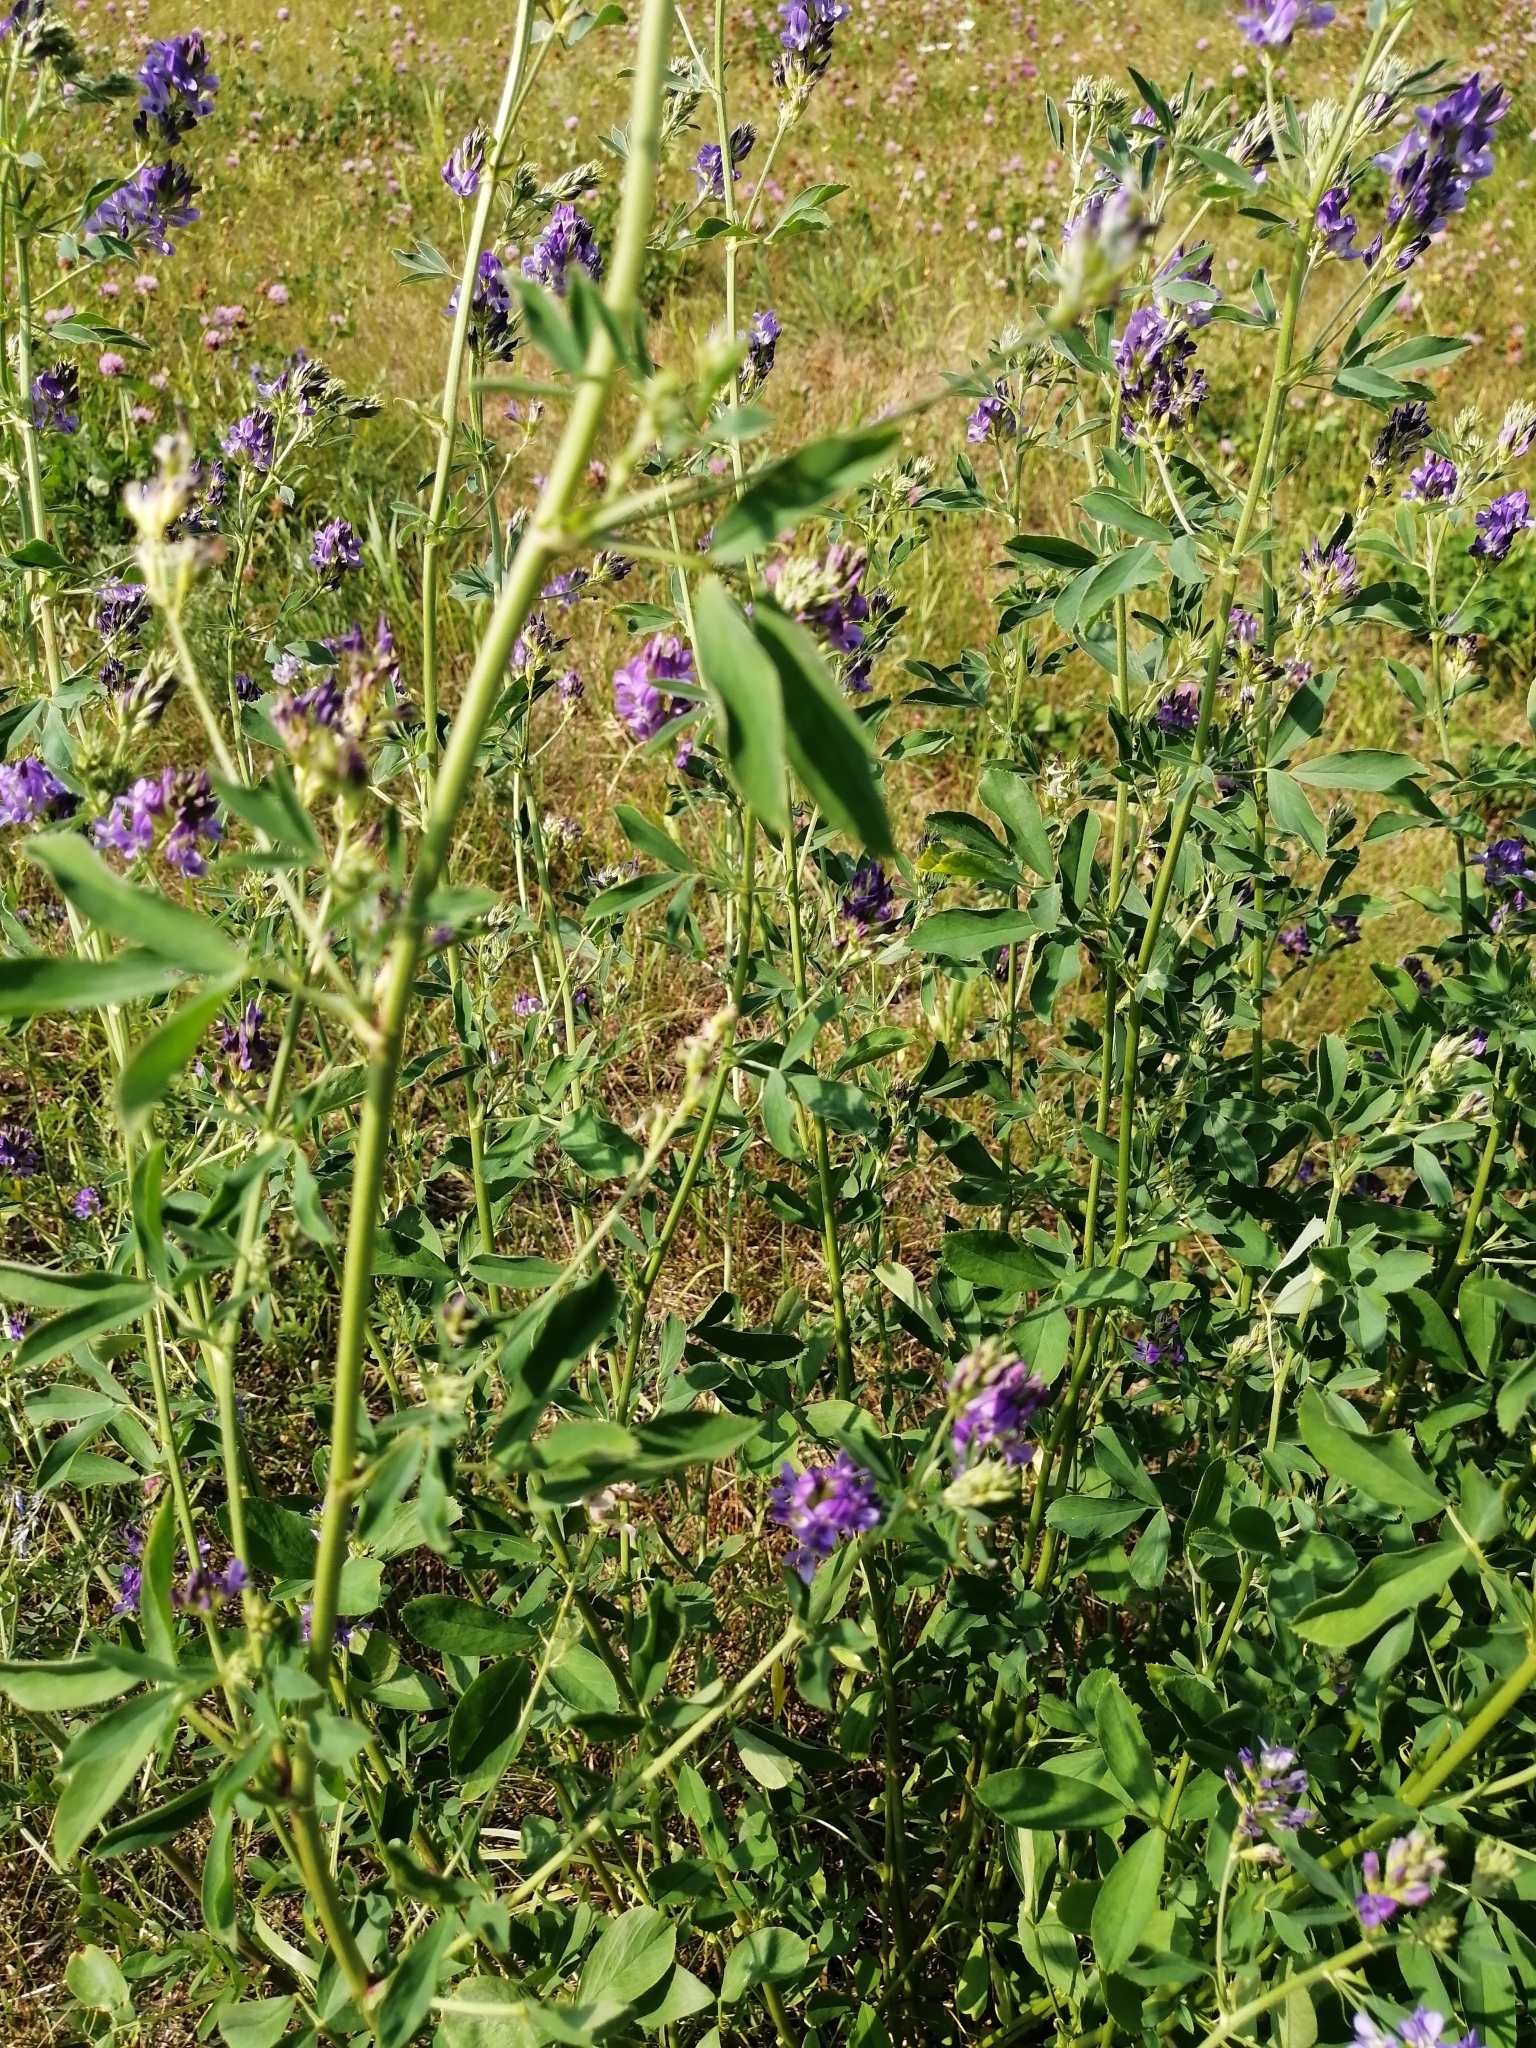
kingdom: Plantae
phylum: Tracheophyta
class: Magnoliopsida
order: Fabales
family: Fabaceae
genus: Medicago
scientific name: Medicago sativa
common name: Alfalfa
